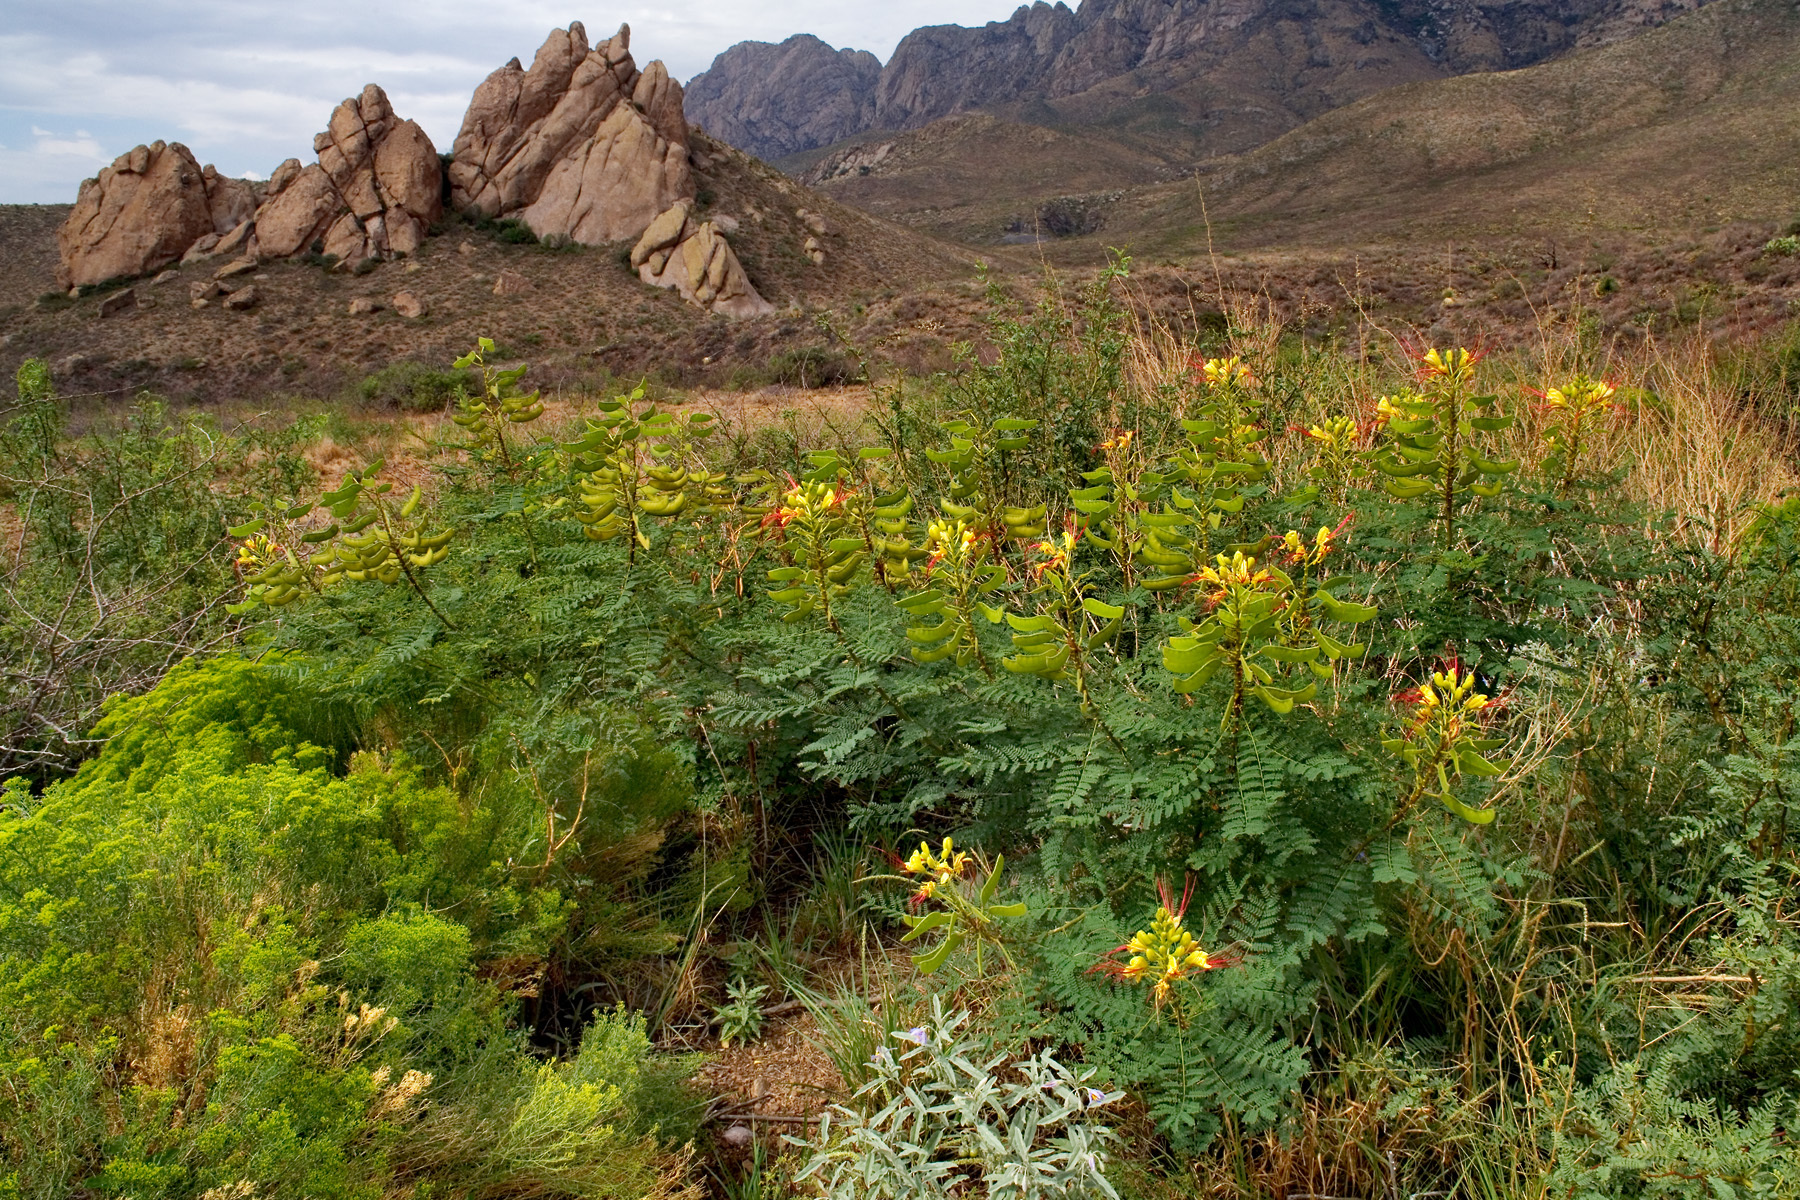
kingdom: Plantae
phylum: Tracheophyta
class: Magnoliopsida
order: Fabales
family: Fabaceae
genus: Erythrostemon
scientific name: Erythrostemon gilliesii
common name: Bird-of-paradise shrub
